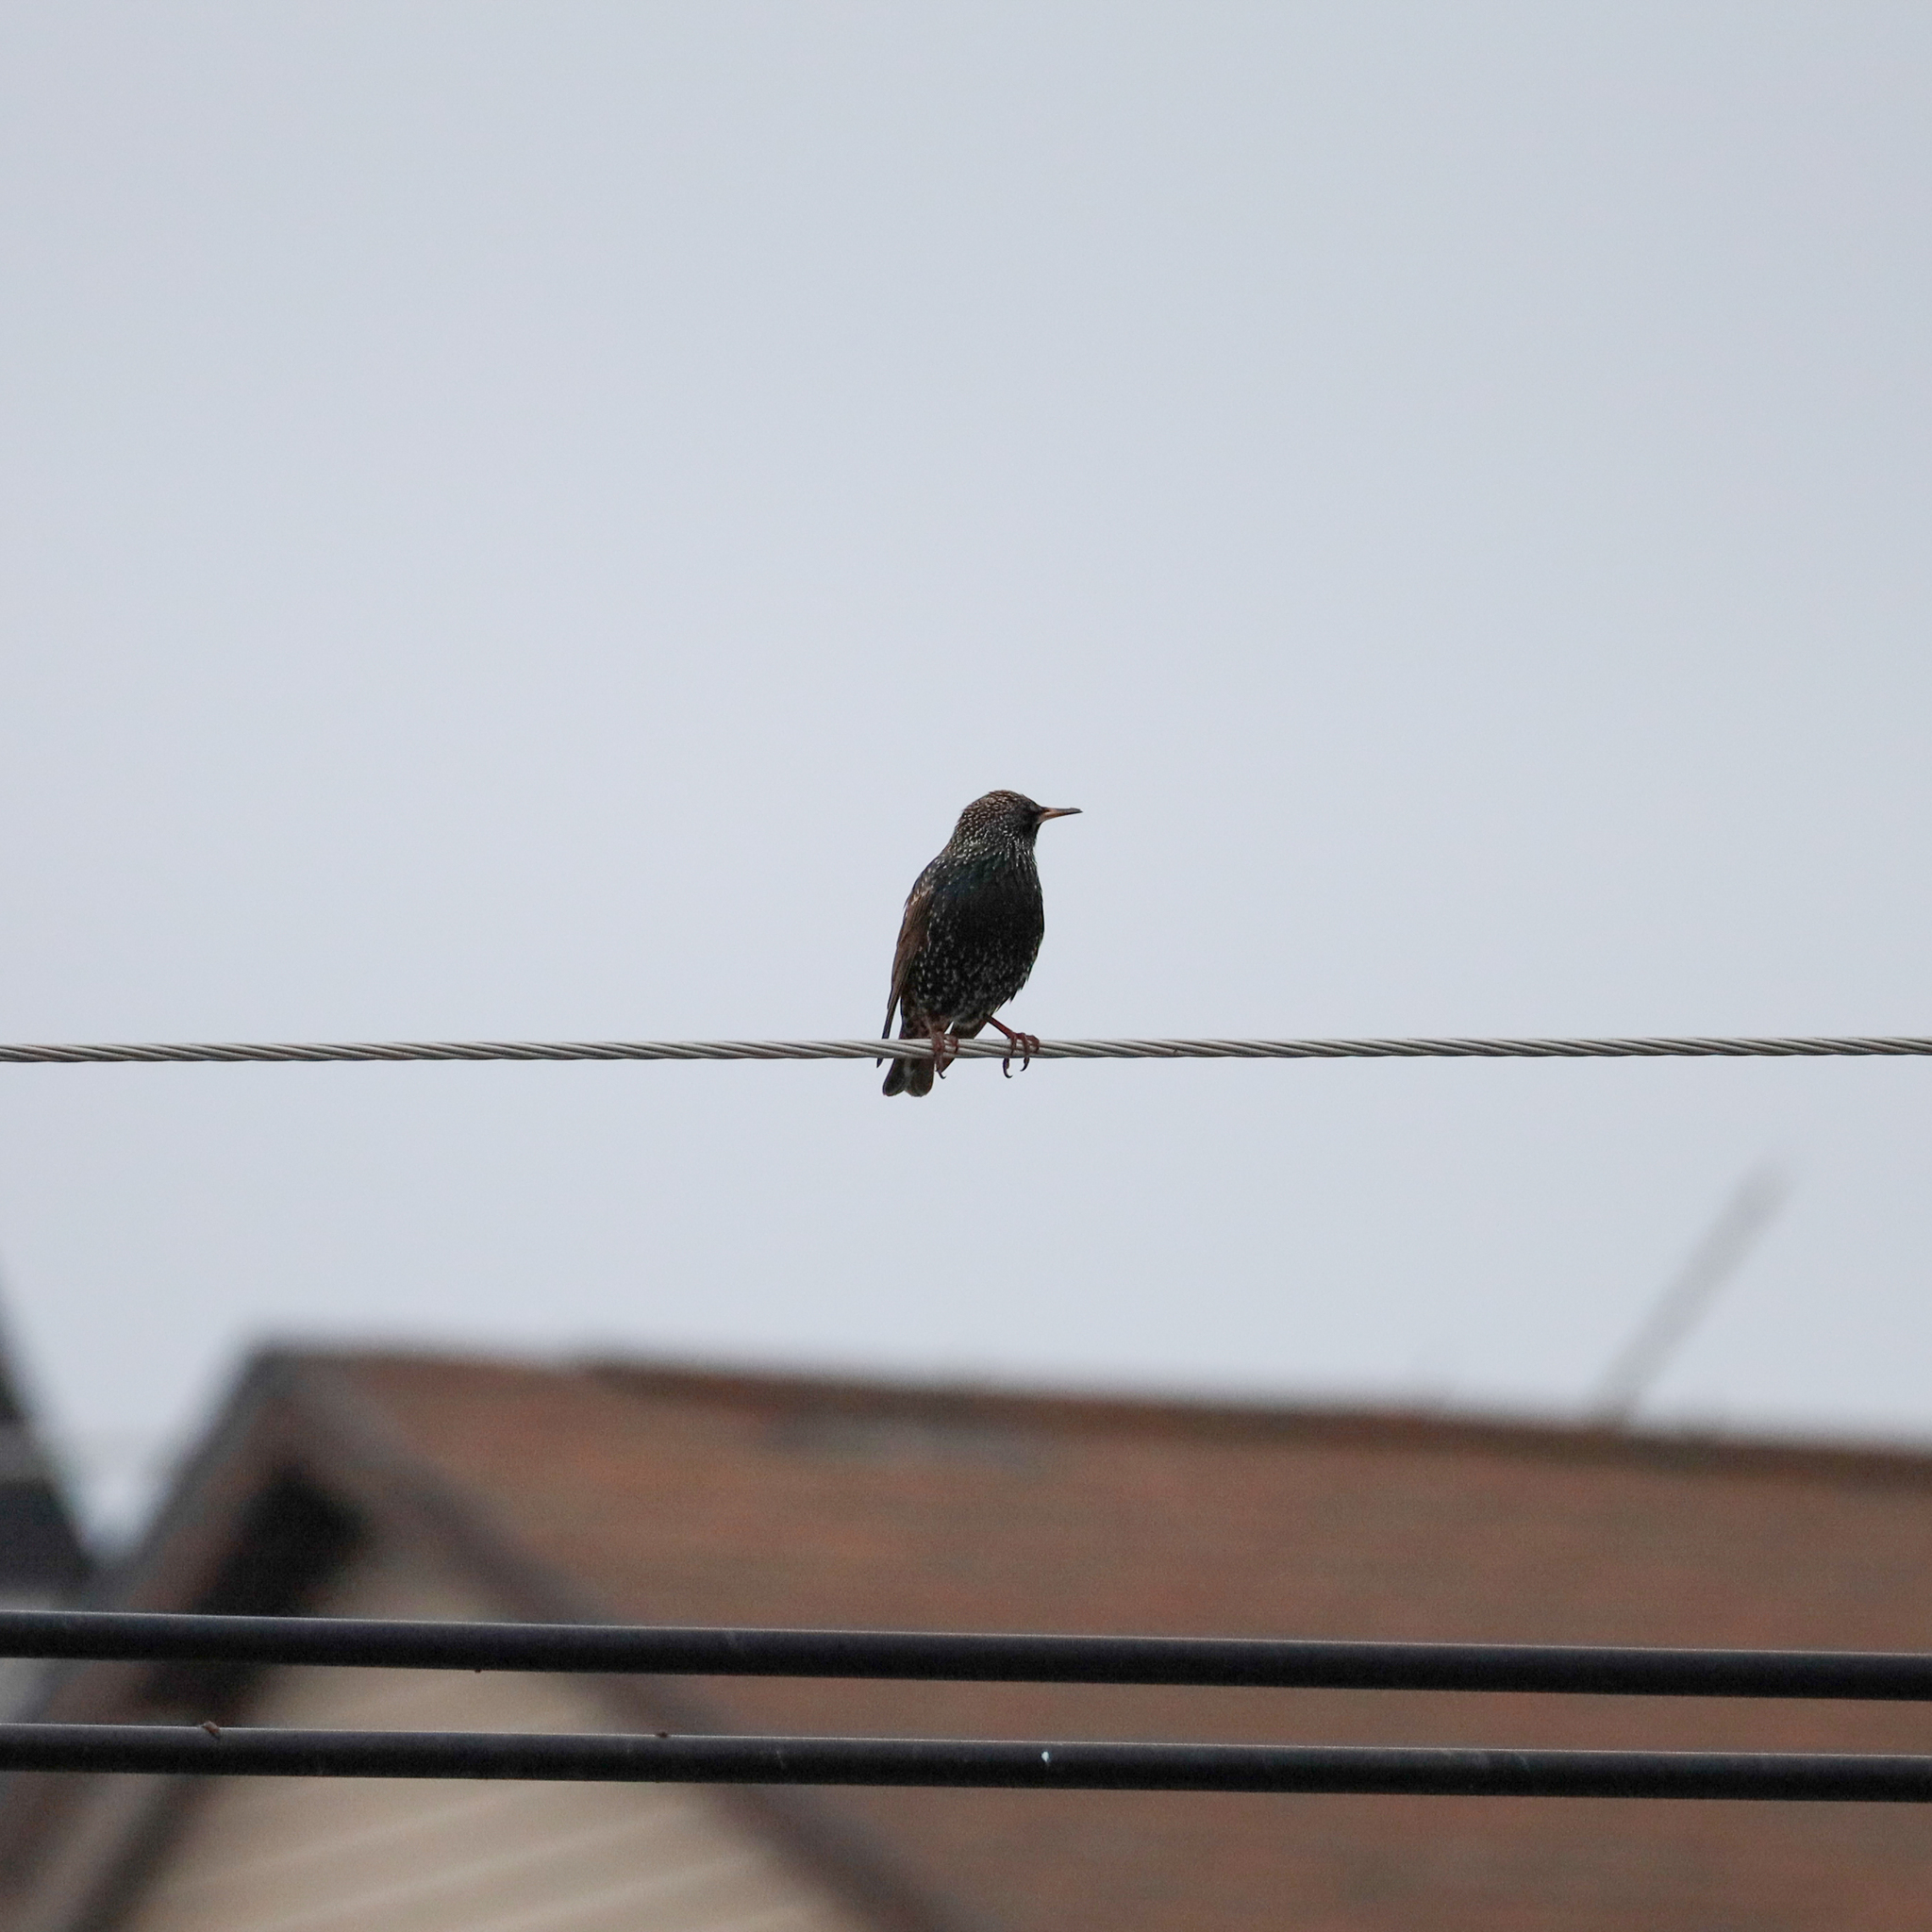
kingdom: Animalia
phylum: Chordata
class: Aves
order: Passeriformes
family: Sturnidae
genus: Sturnus
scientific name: Sturnus vulgaris
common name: Common starling
